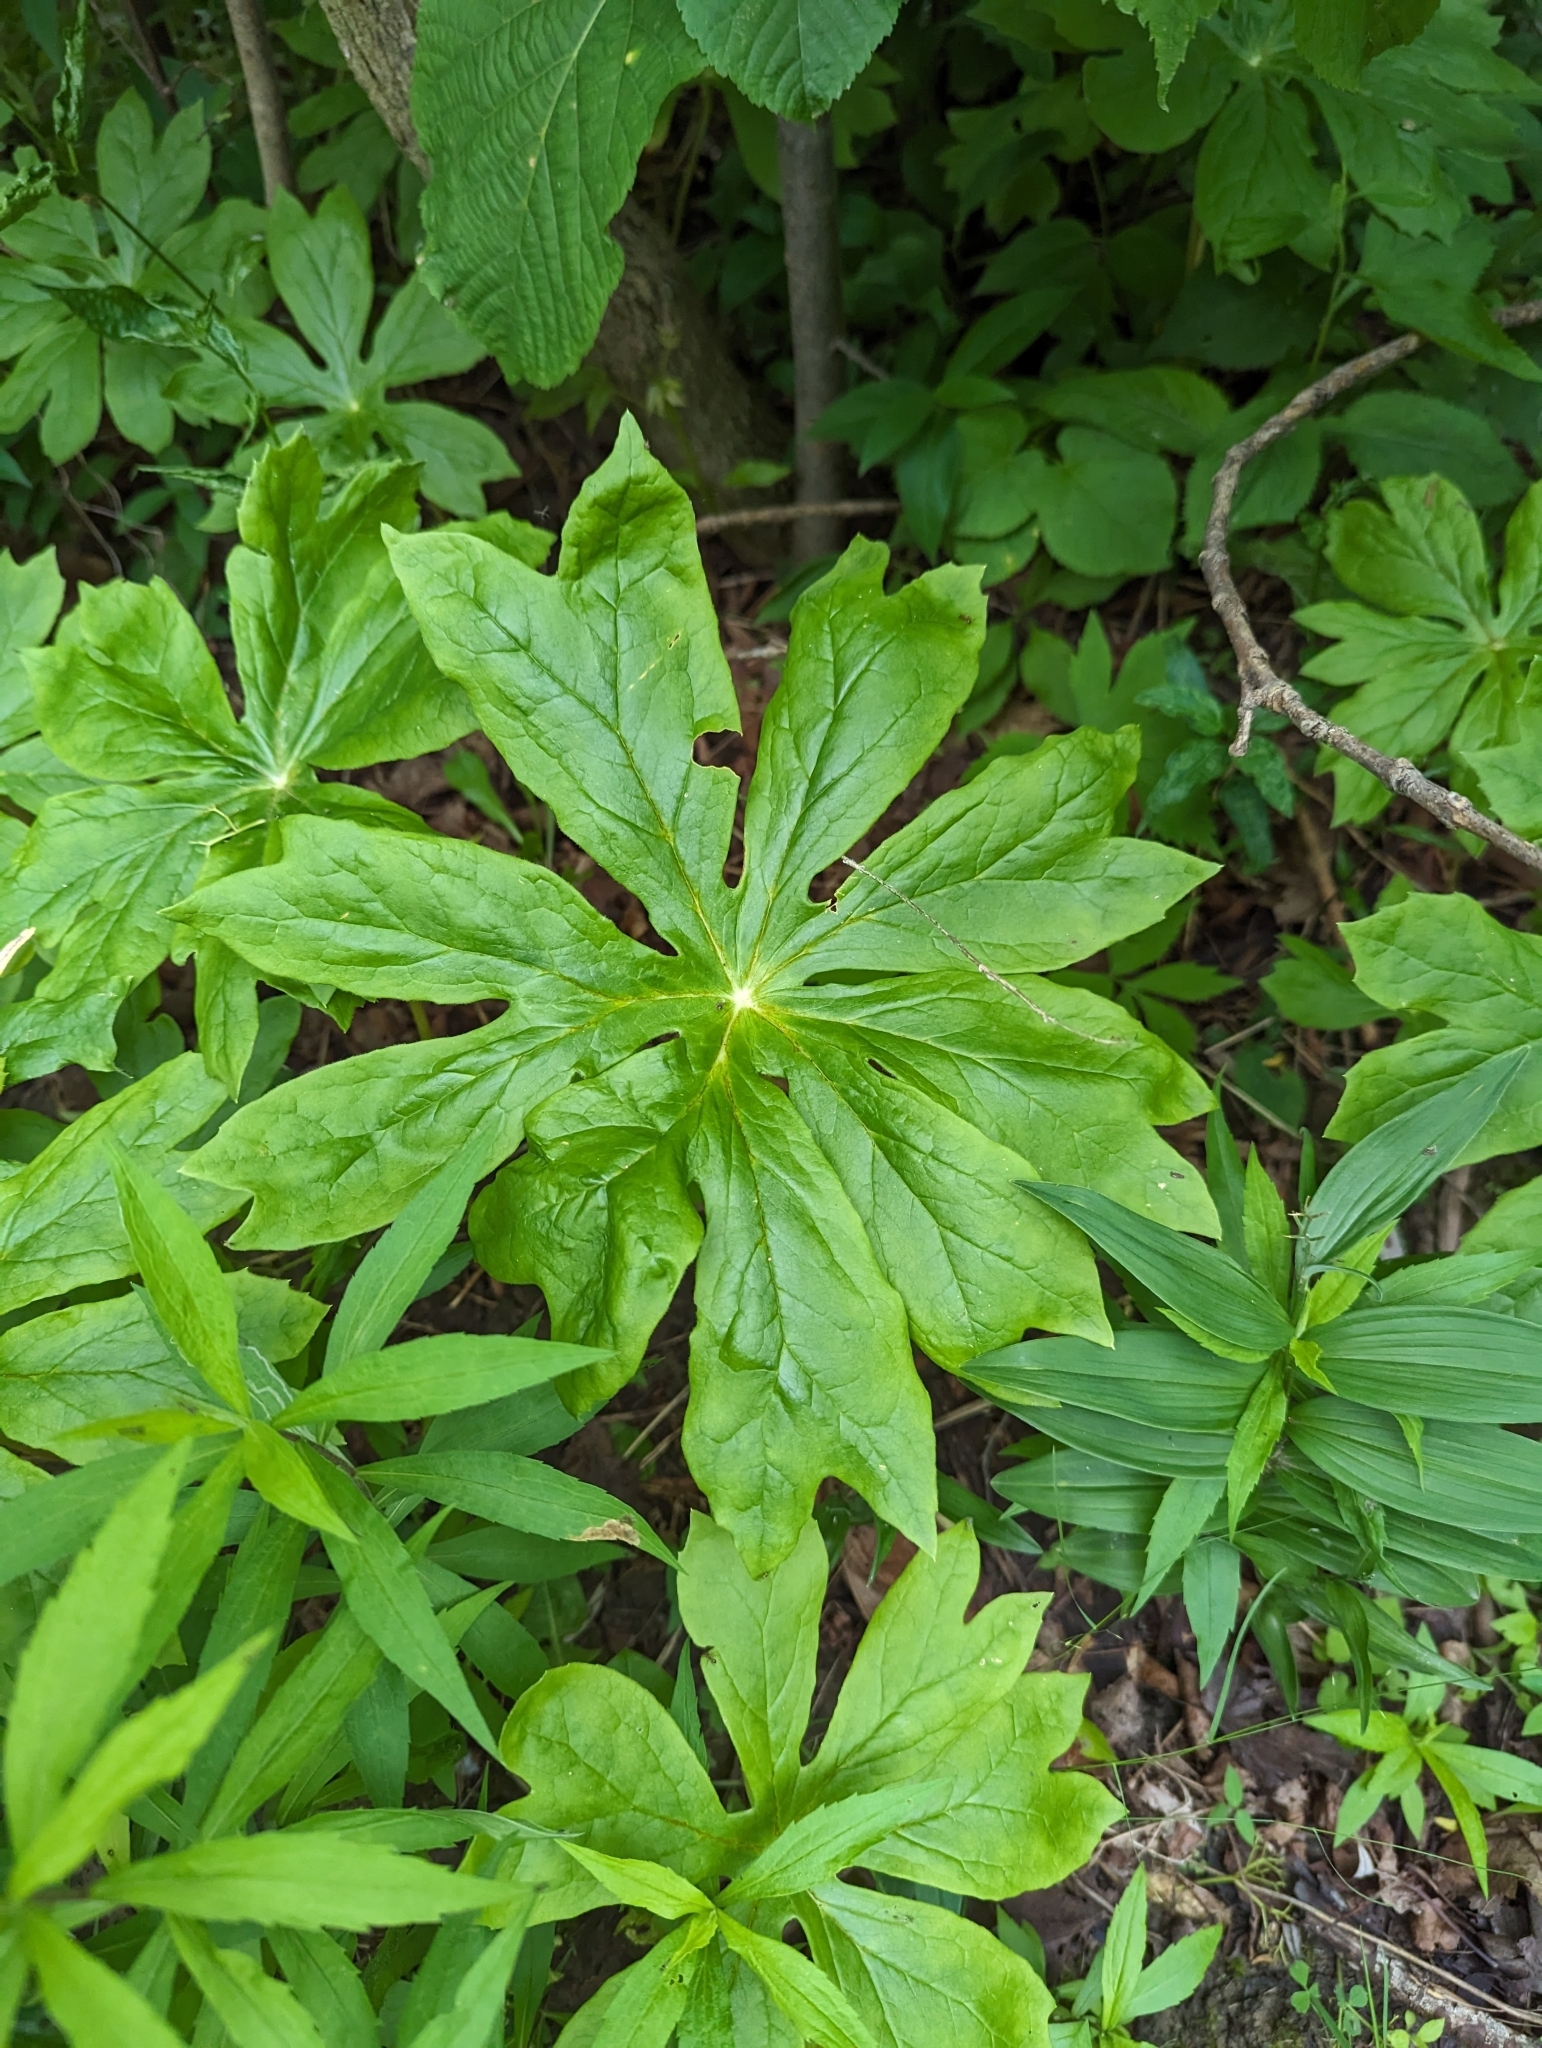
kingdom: Plantae
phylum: Tracheophyta
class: Magnoliopsida
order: Ranunculales
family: Berberidaceae
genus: Podophyllum
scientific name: Podophyllum peltatum
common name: Wild mandrake
